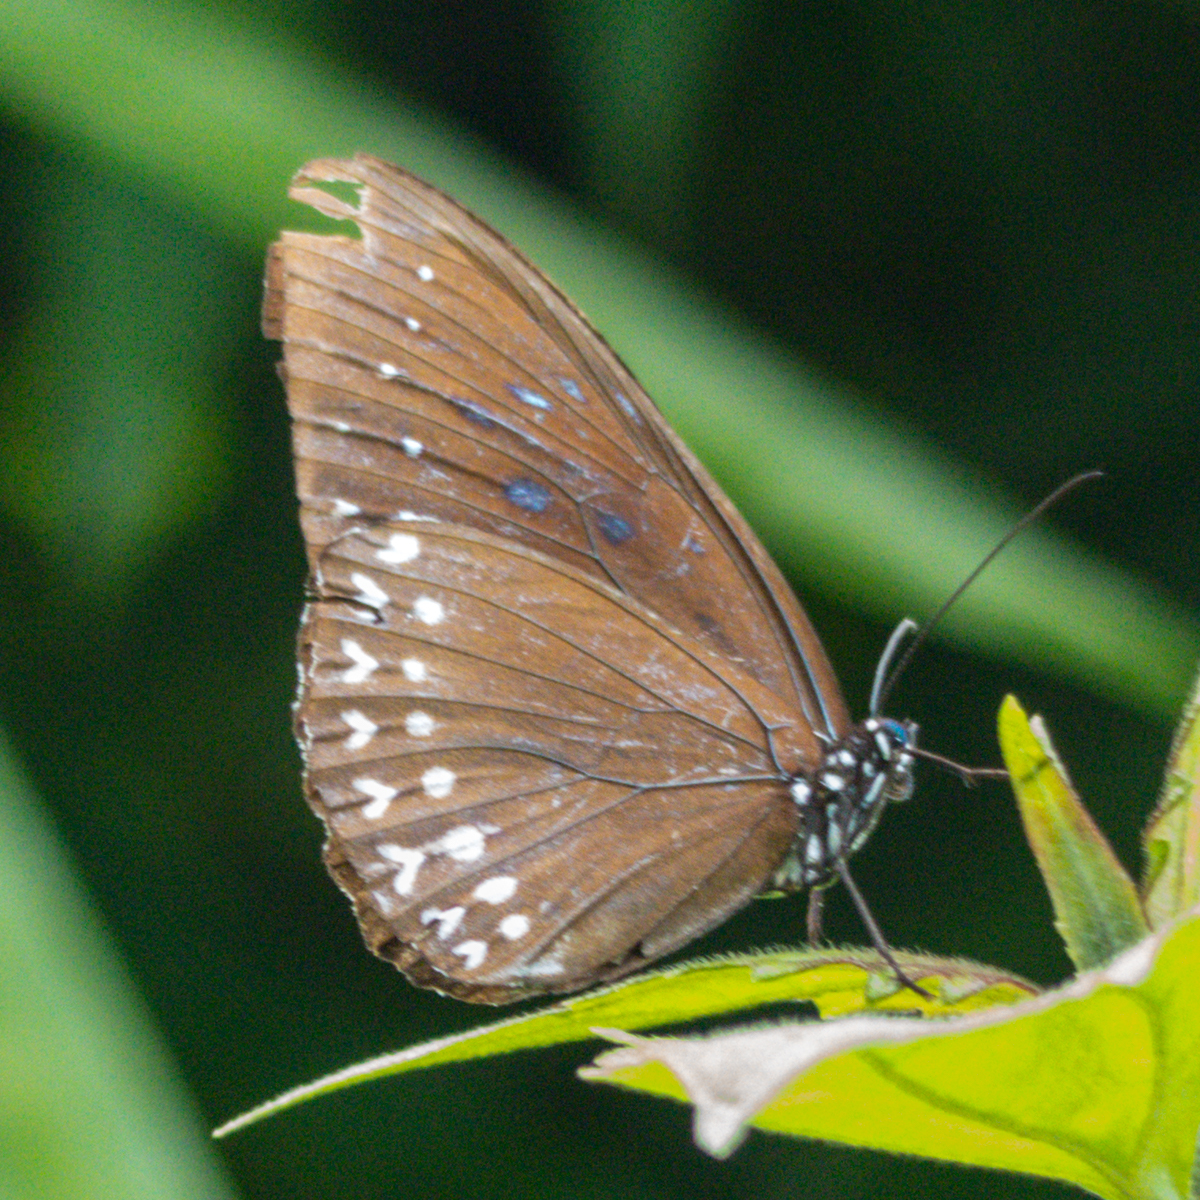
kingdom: Animalia
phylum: Arthropoda
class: Insecta
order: Lepidoptera
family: Nymphalidae
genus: Penthema
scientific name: Penthema darlisa
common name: Three-coloured kaiser
